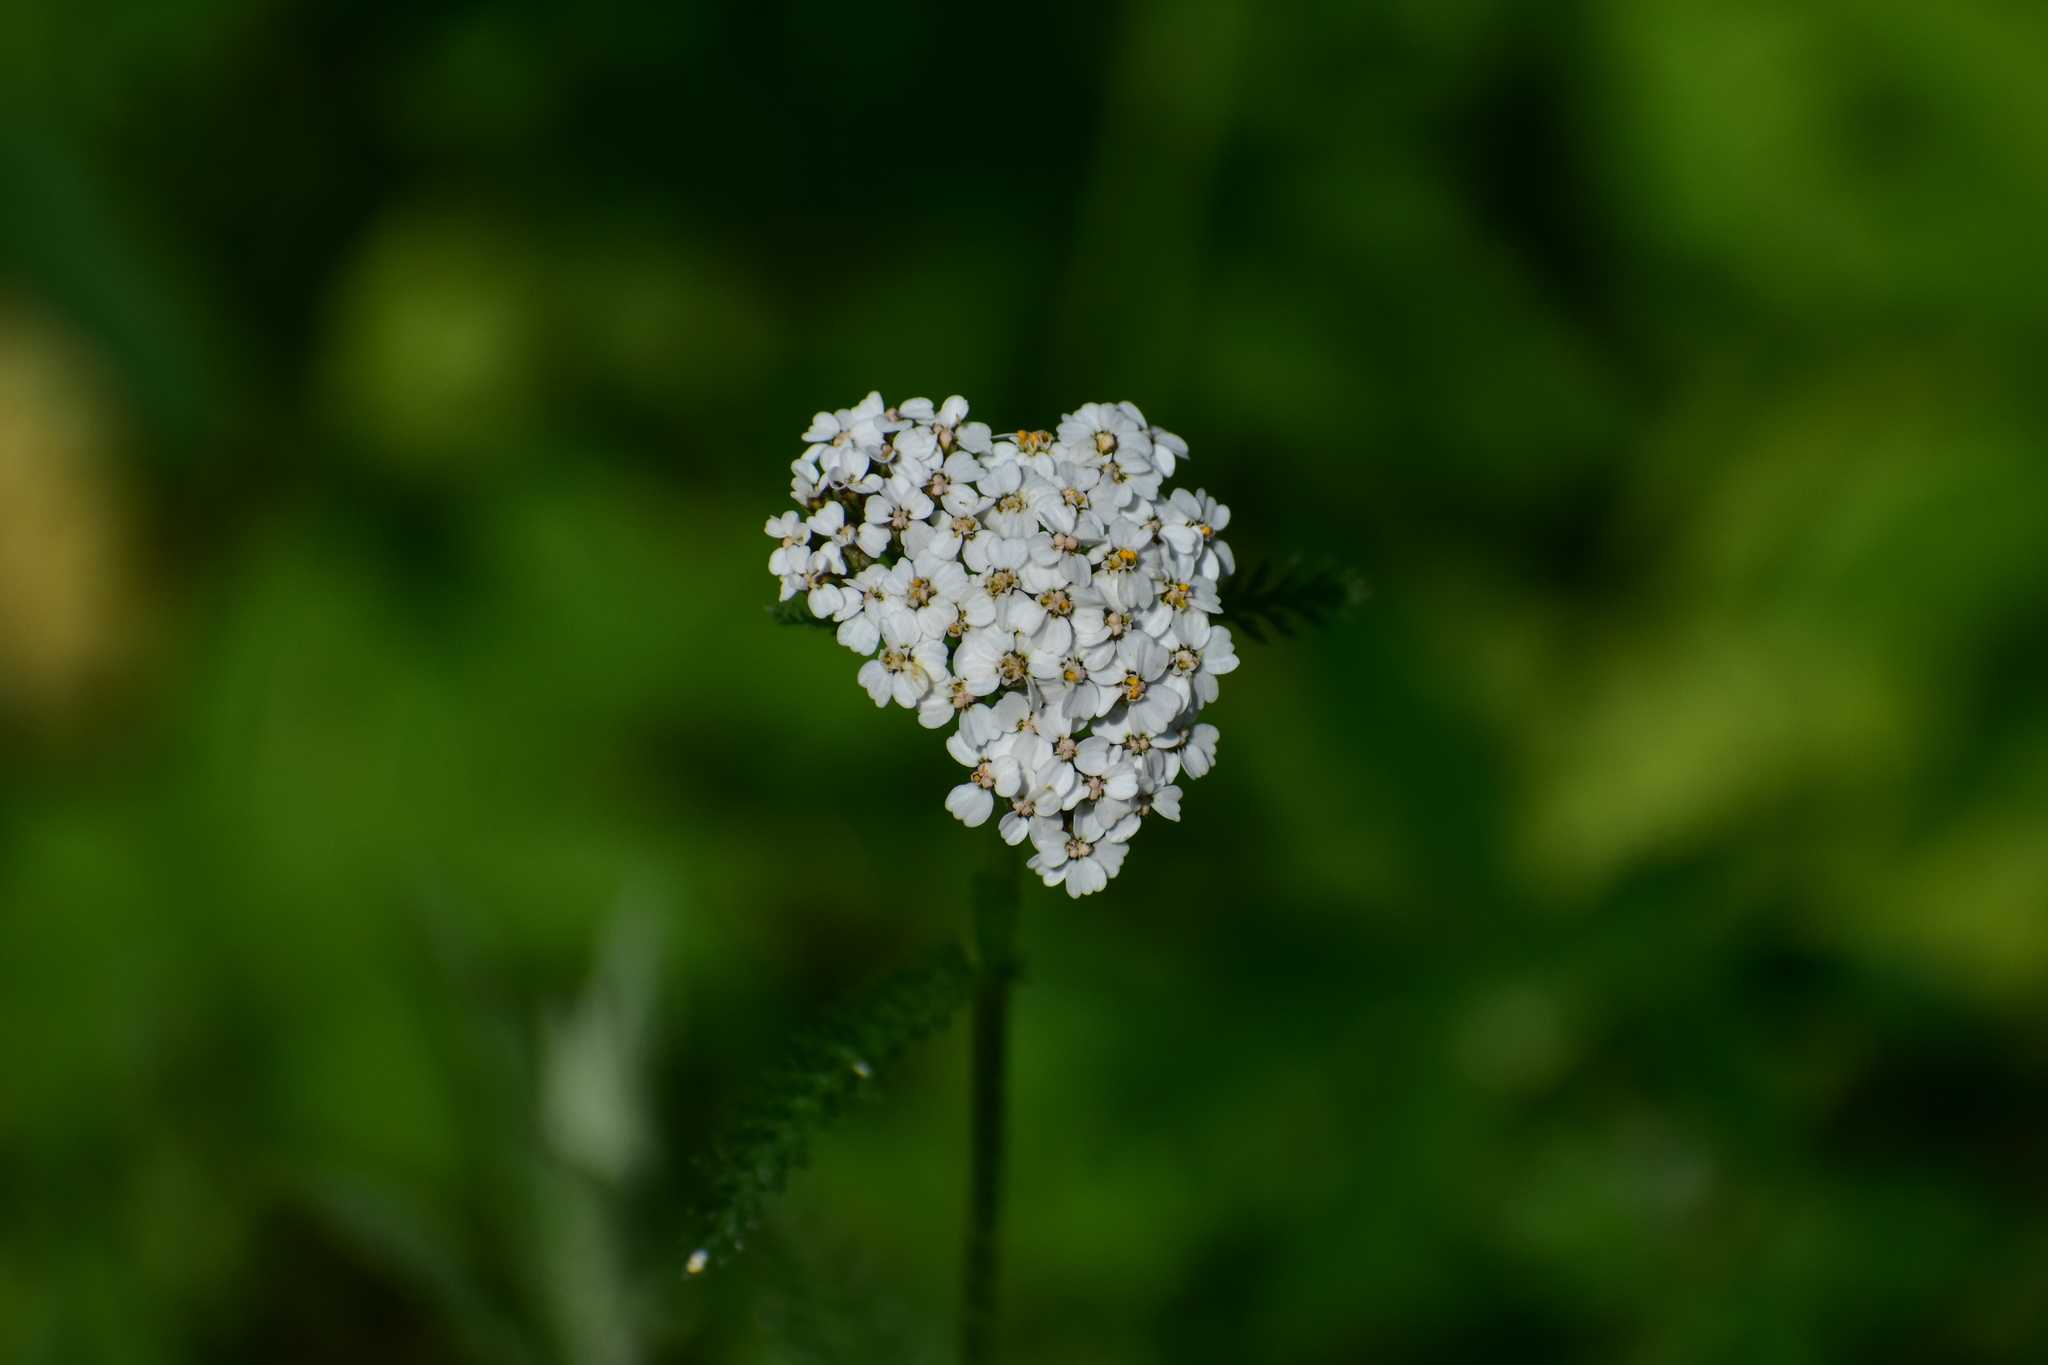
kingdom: Plantae
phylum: Tracheophyta
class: Magnoliopsida
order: Asterales
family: Asteraceae
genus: Achillea
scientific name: Achillea millefolium
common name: Yarrow
